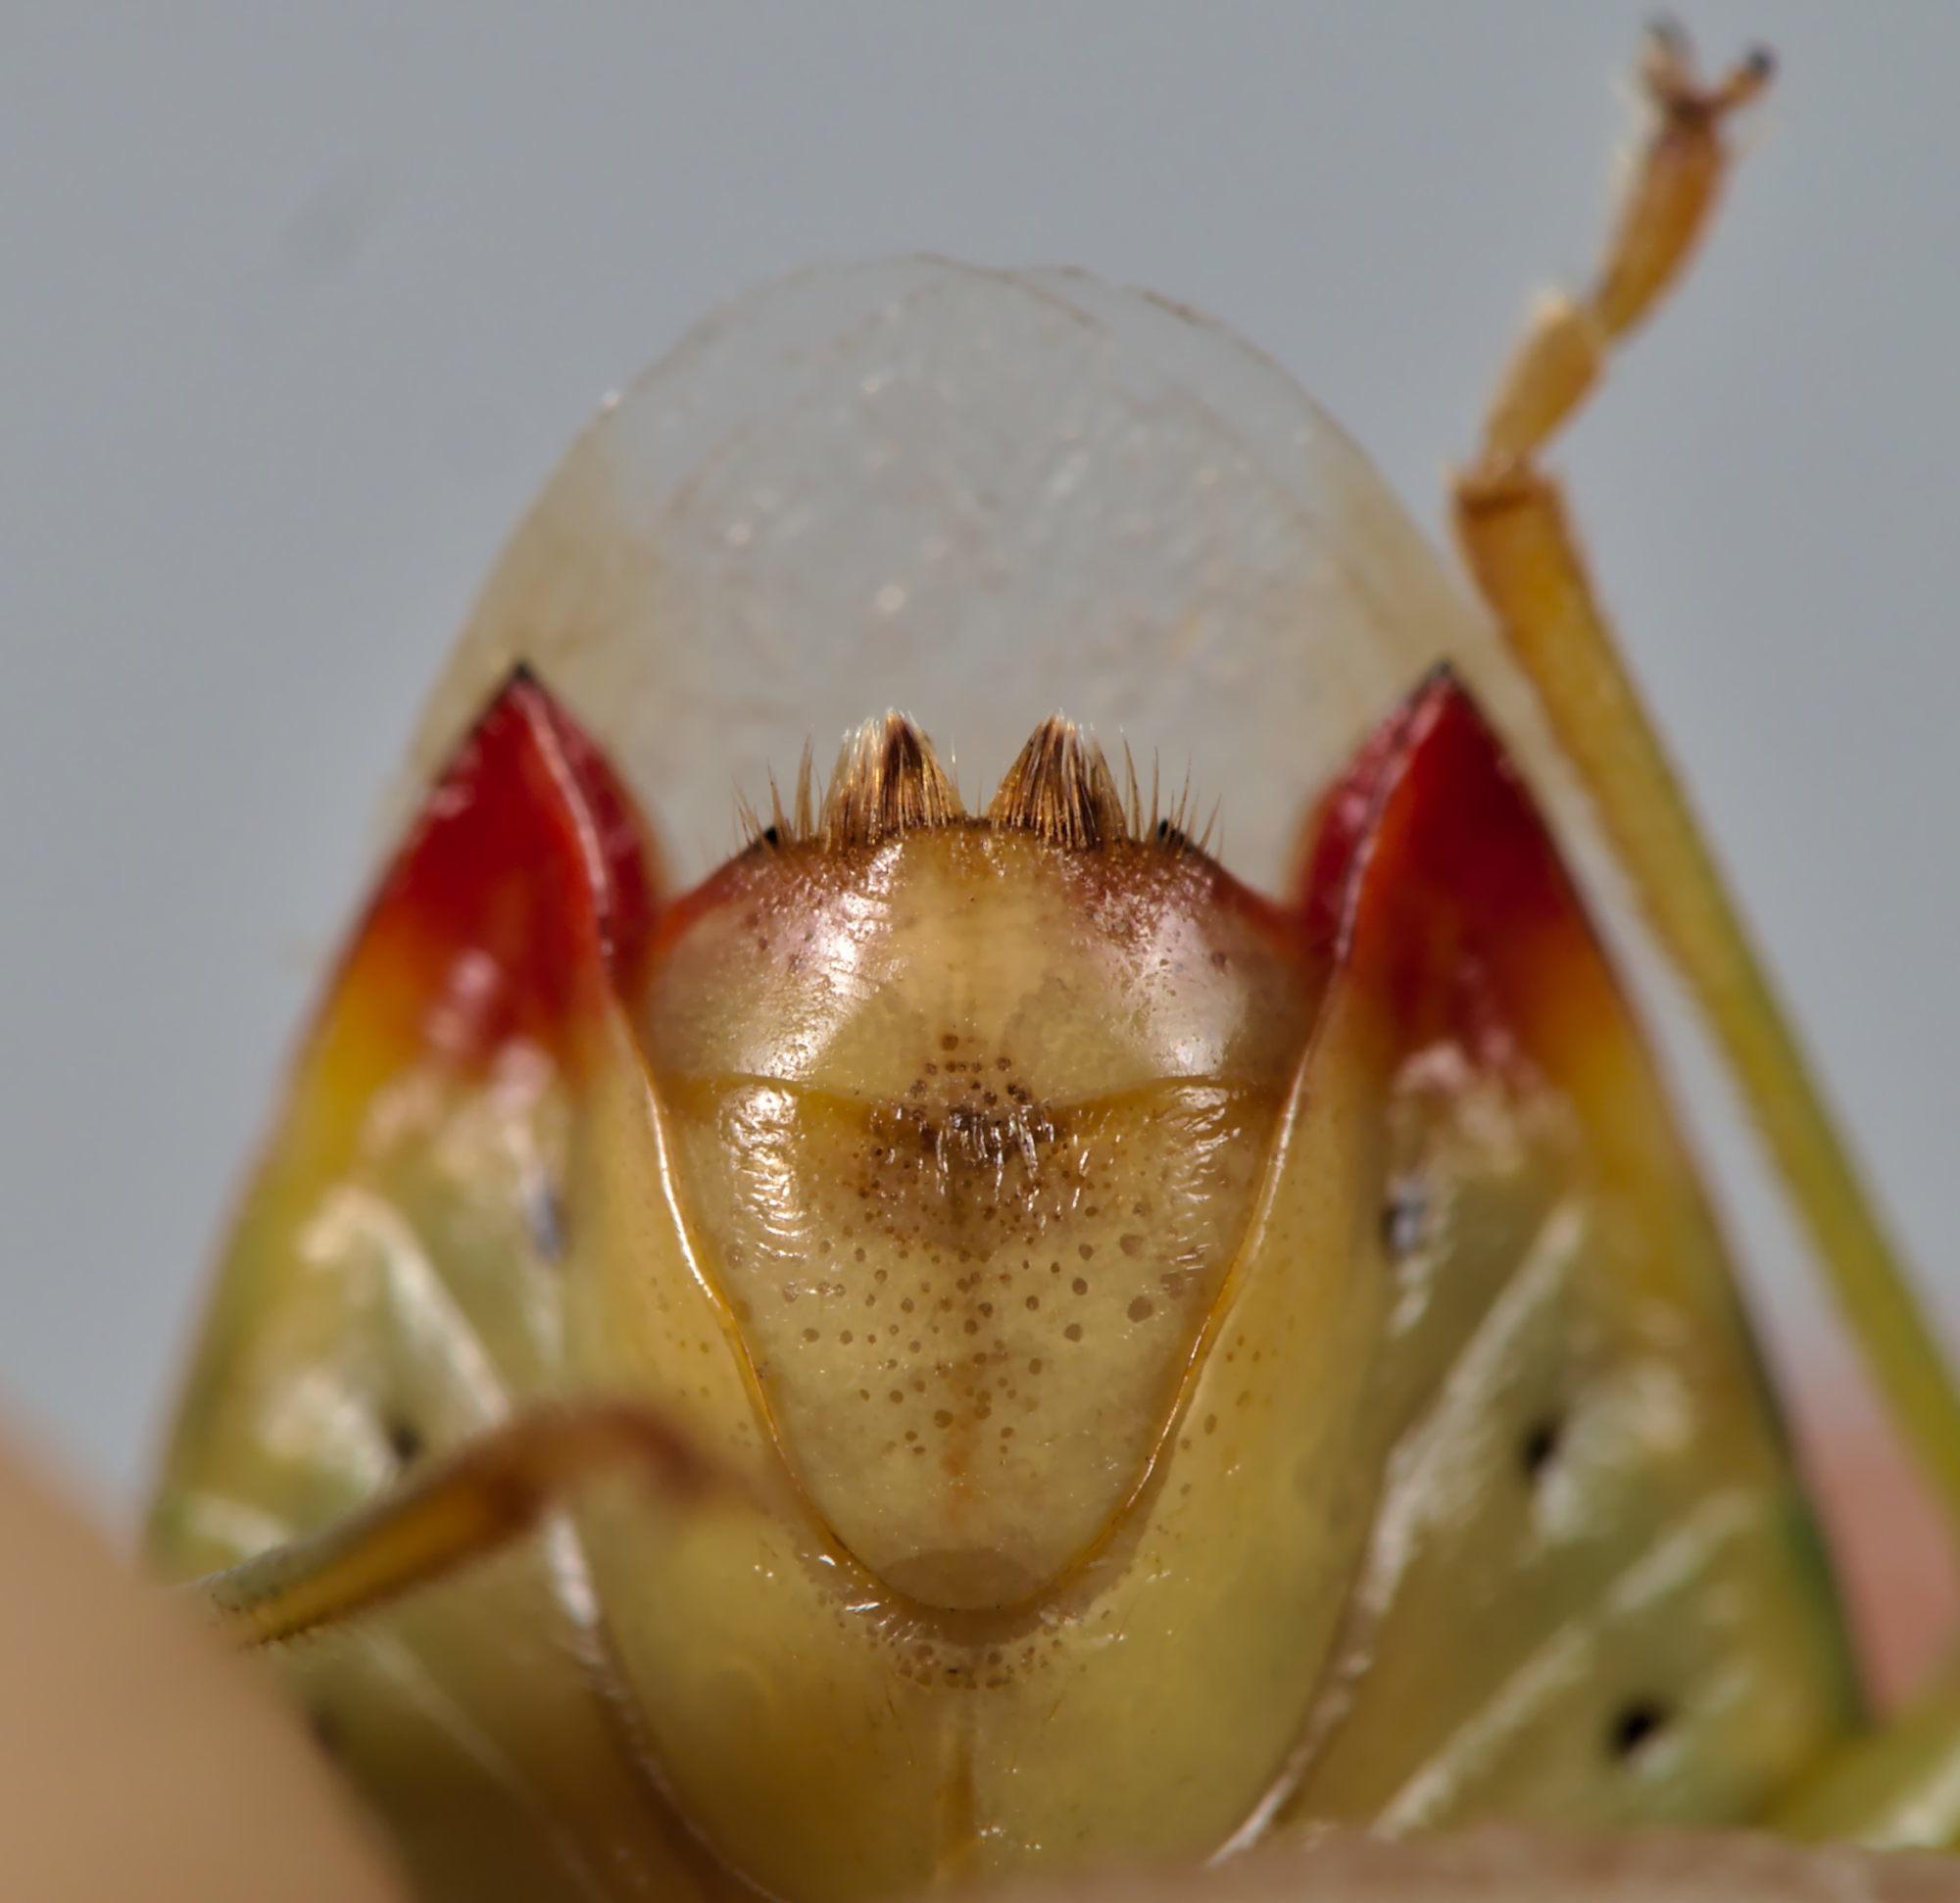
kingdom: Animalia
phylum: Arthropoda
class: Insecta
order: Hemiptera
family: Acanthosomatidae
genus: Elasmostethus
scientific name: Elasmostethus interstinctus
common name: Birch shieldbug
